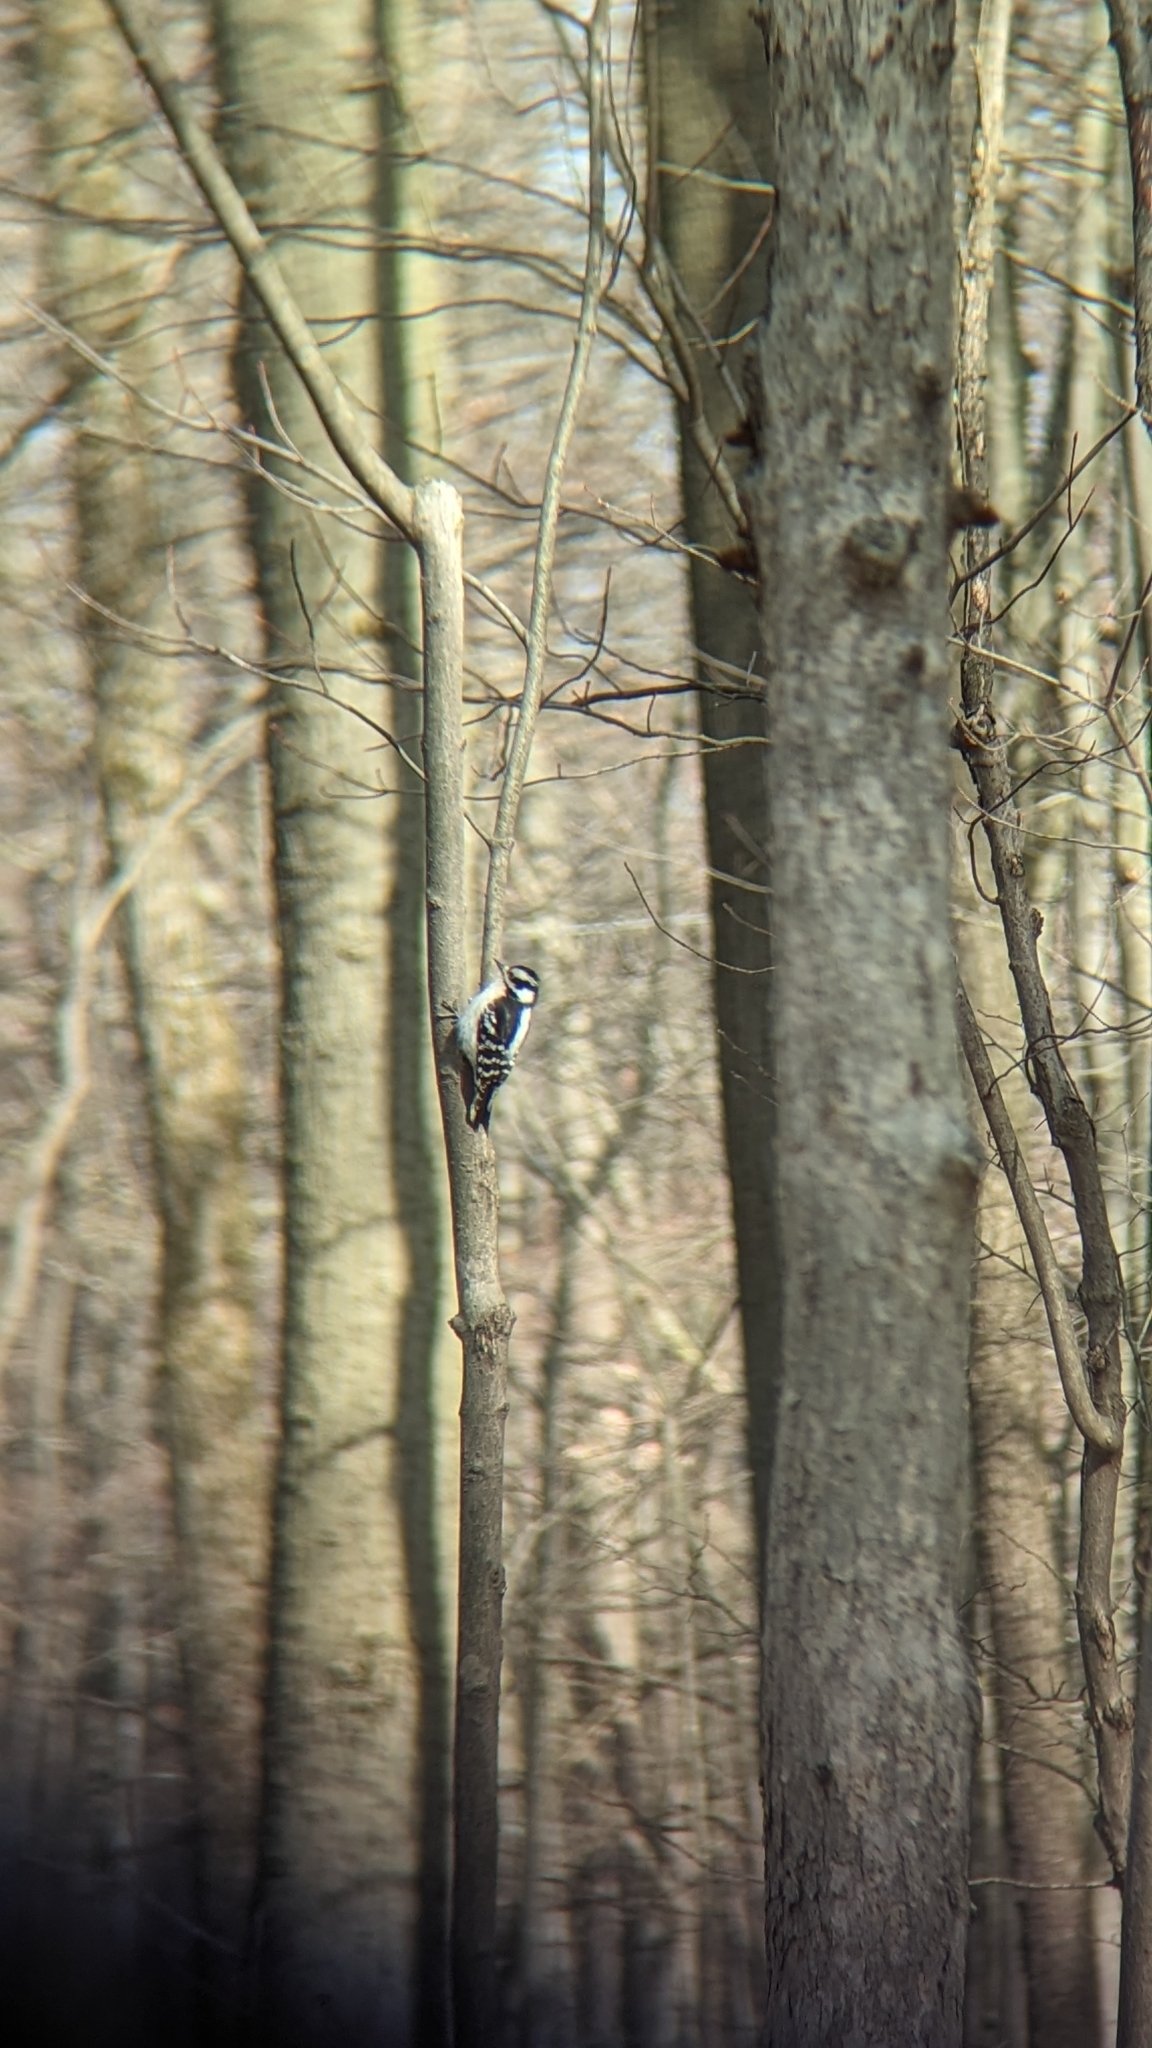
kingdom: Animalia
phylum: Chordata
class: Aves
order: Piciformes
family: Picidae
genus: Dryobates
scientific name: Dryobates pubescens
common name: Downy woodpecker
